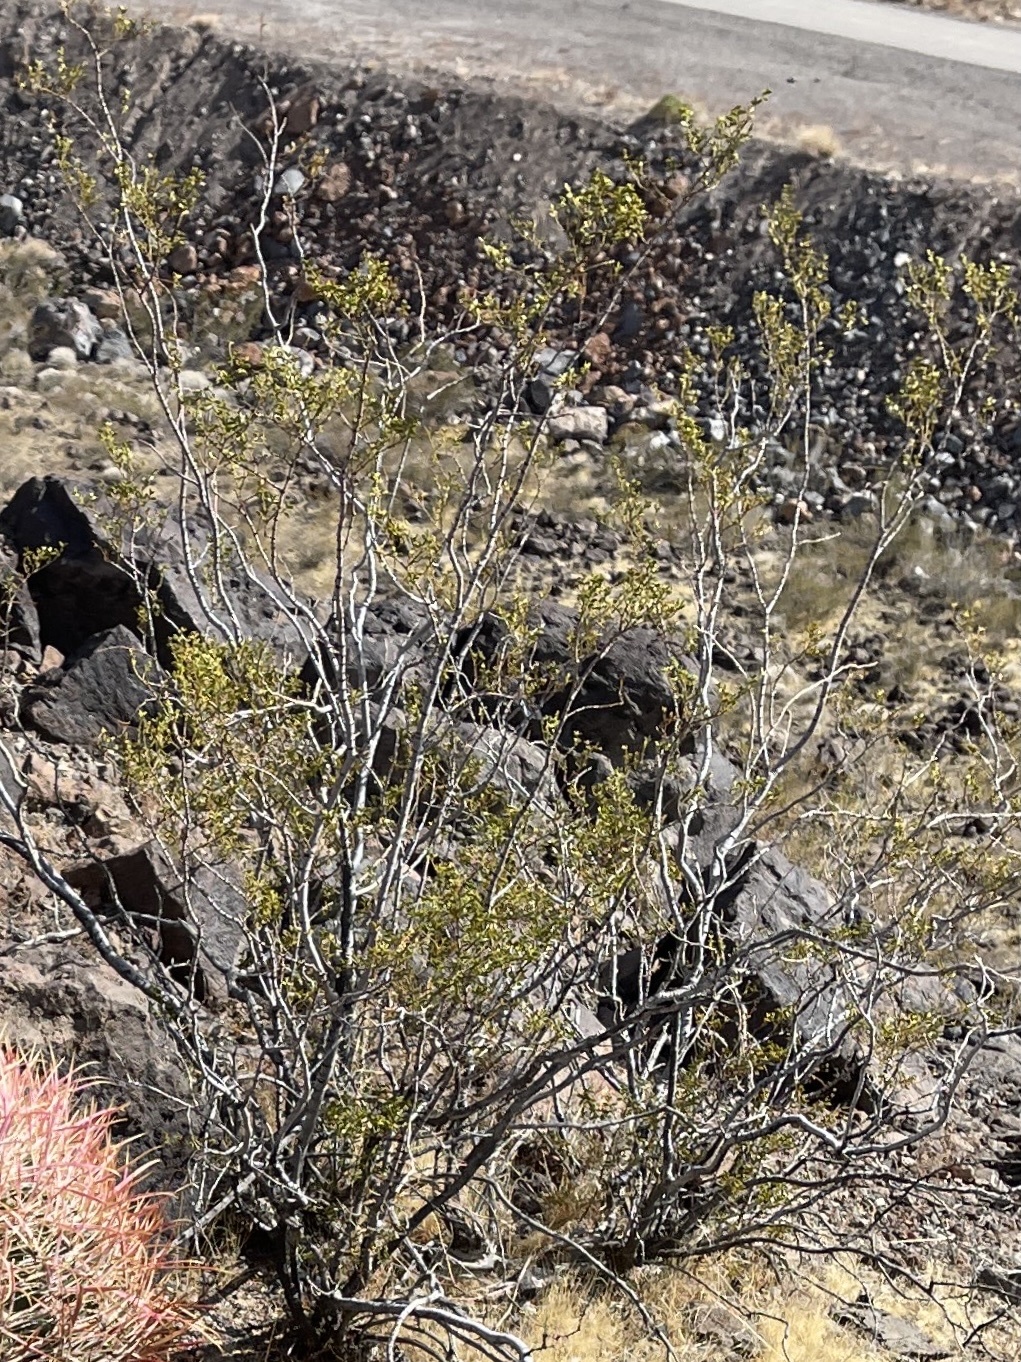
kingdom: Plantae
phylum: Tracheophyta
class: Magnoliopsida
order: Zygophyllales
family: Zygophyllaceae
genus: Larrea
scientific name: Larrea tridentata
